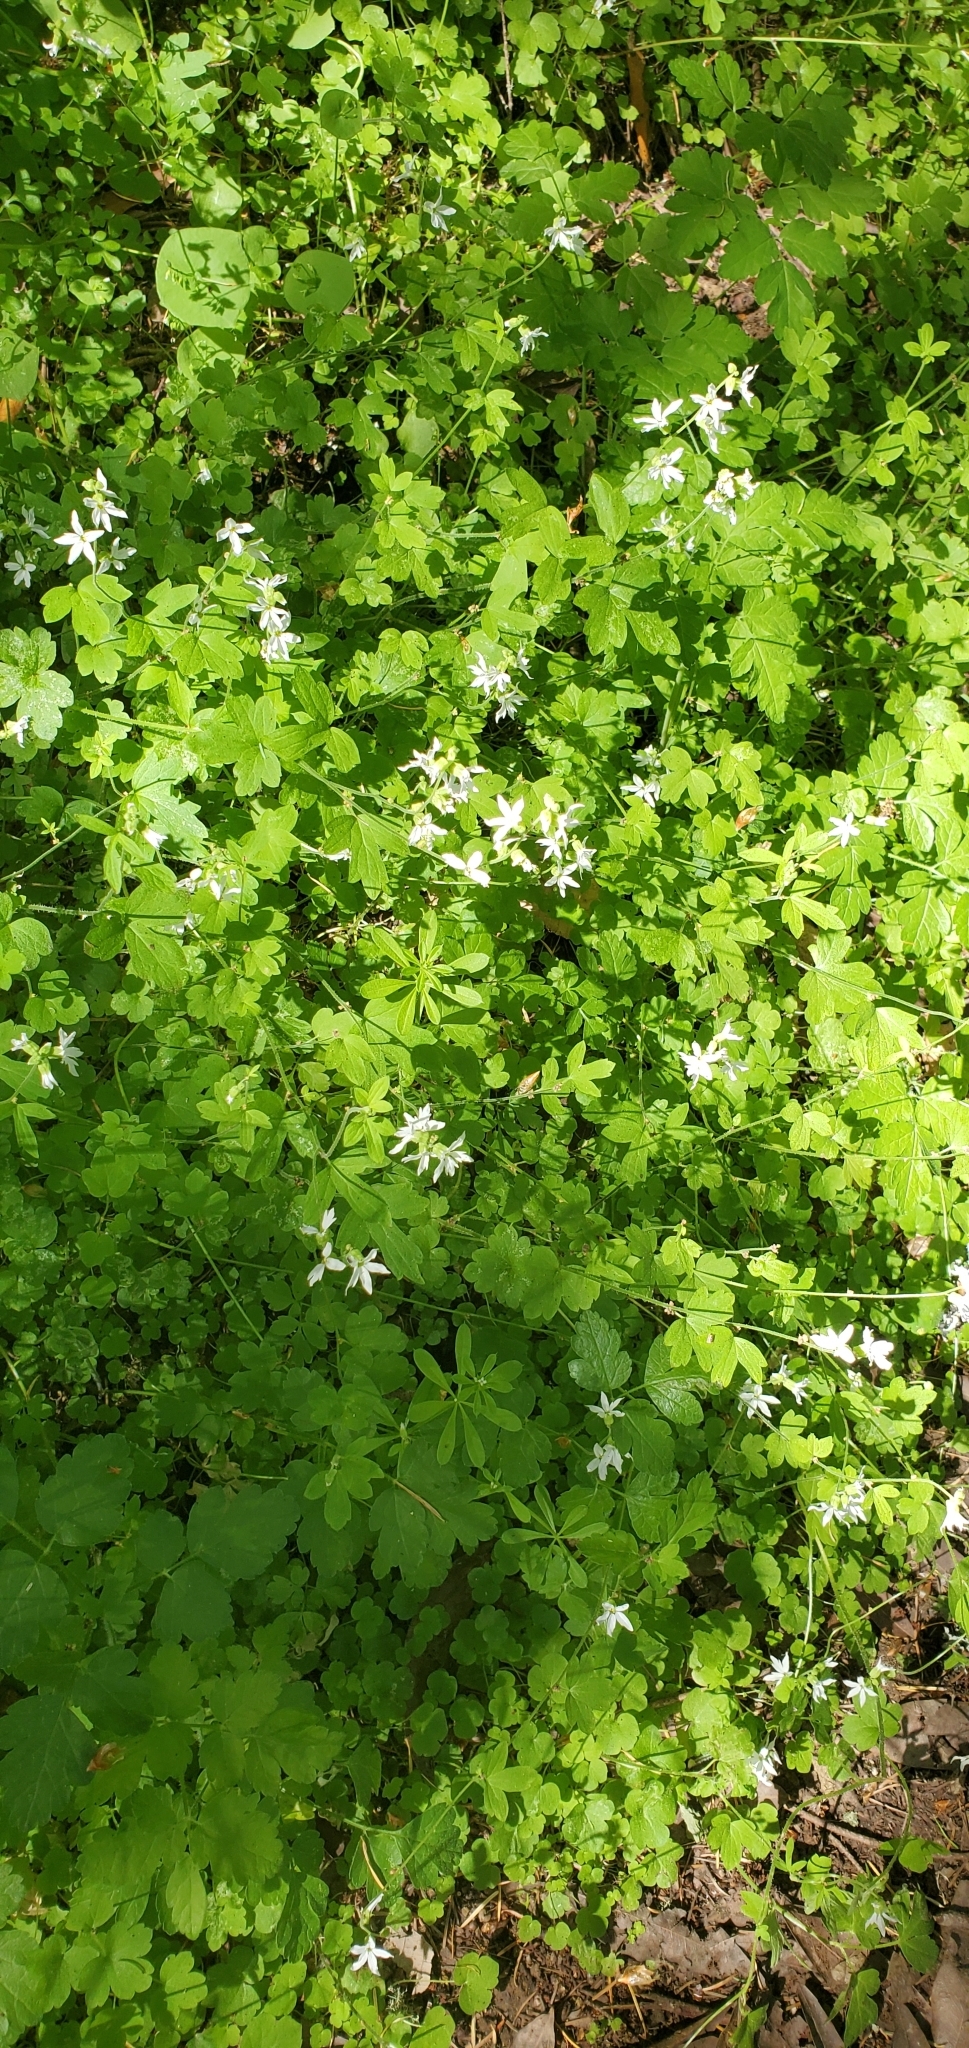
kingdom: Plantae
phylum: Tracheophyta
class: Magnoliopsida
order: Saxifragales
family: Saxifragaceae
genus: Lithophragma
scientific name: Lithophragma heterophyllum
